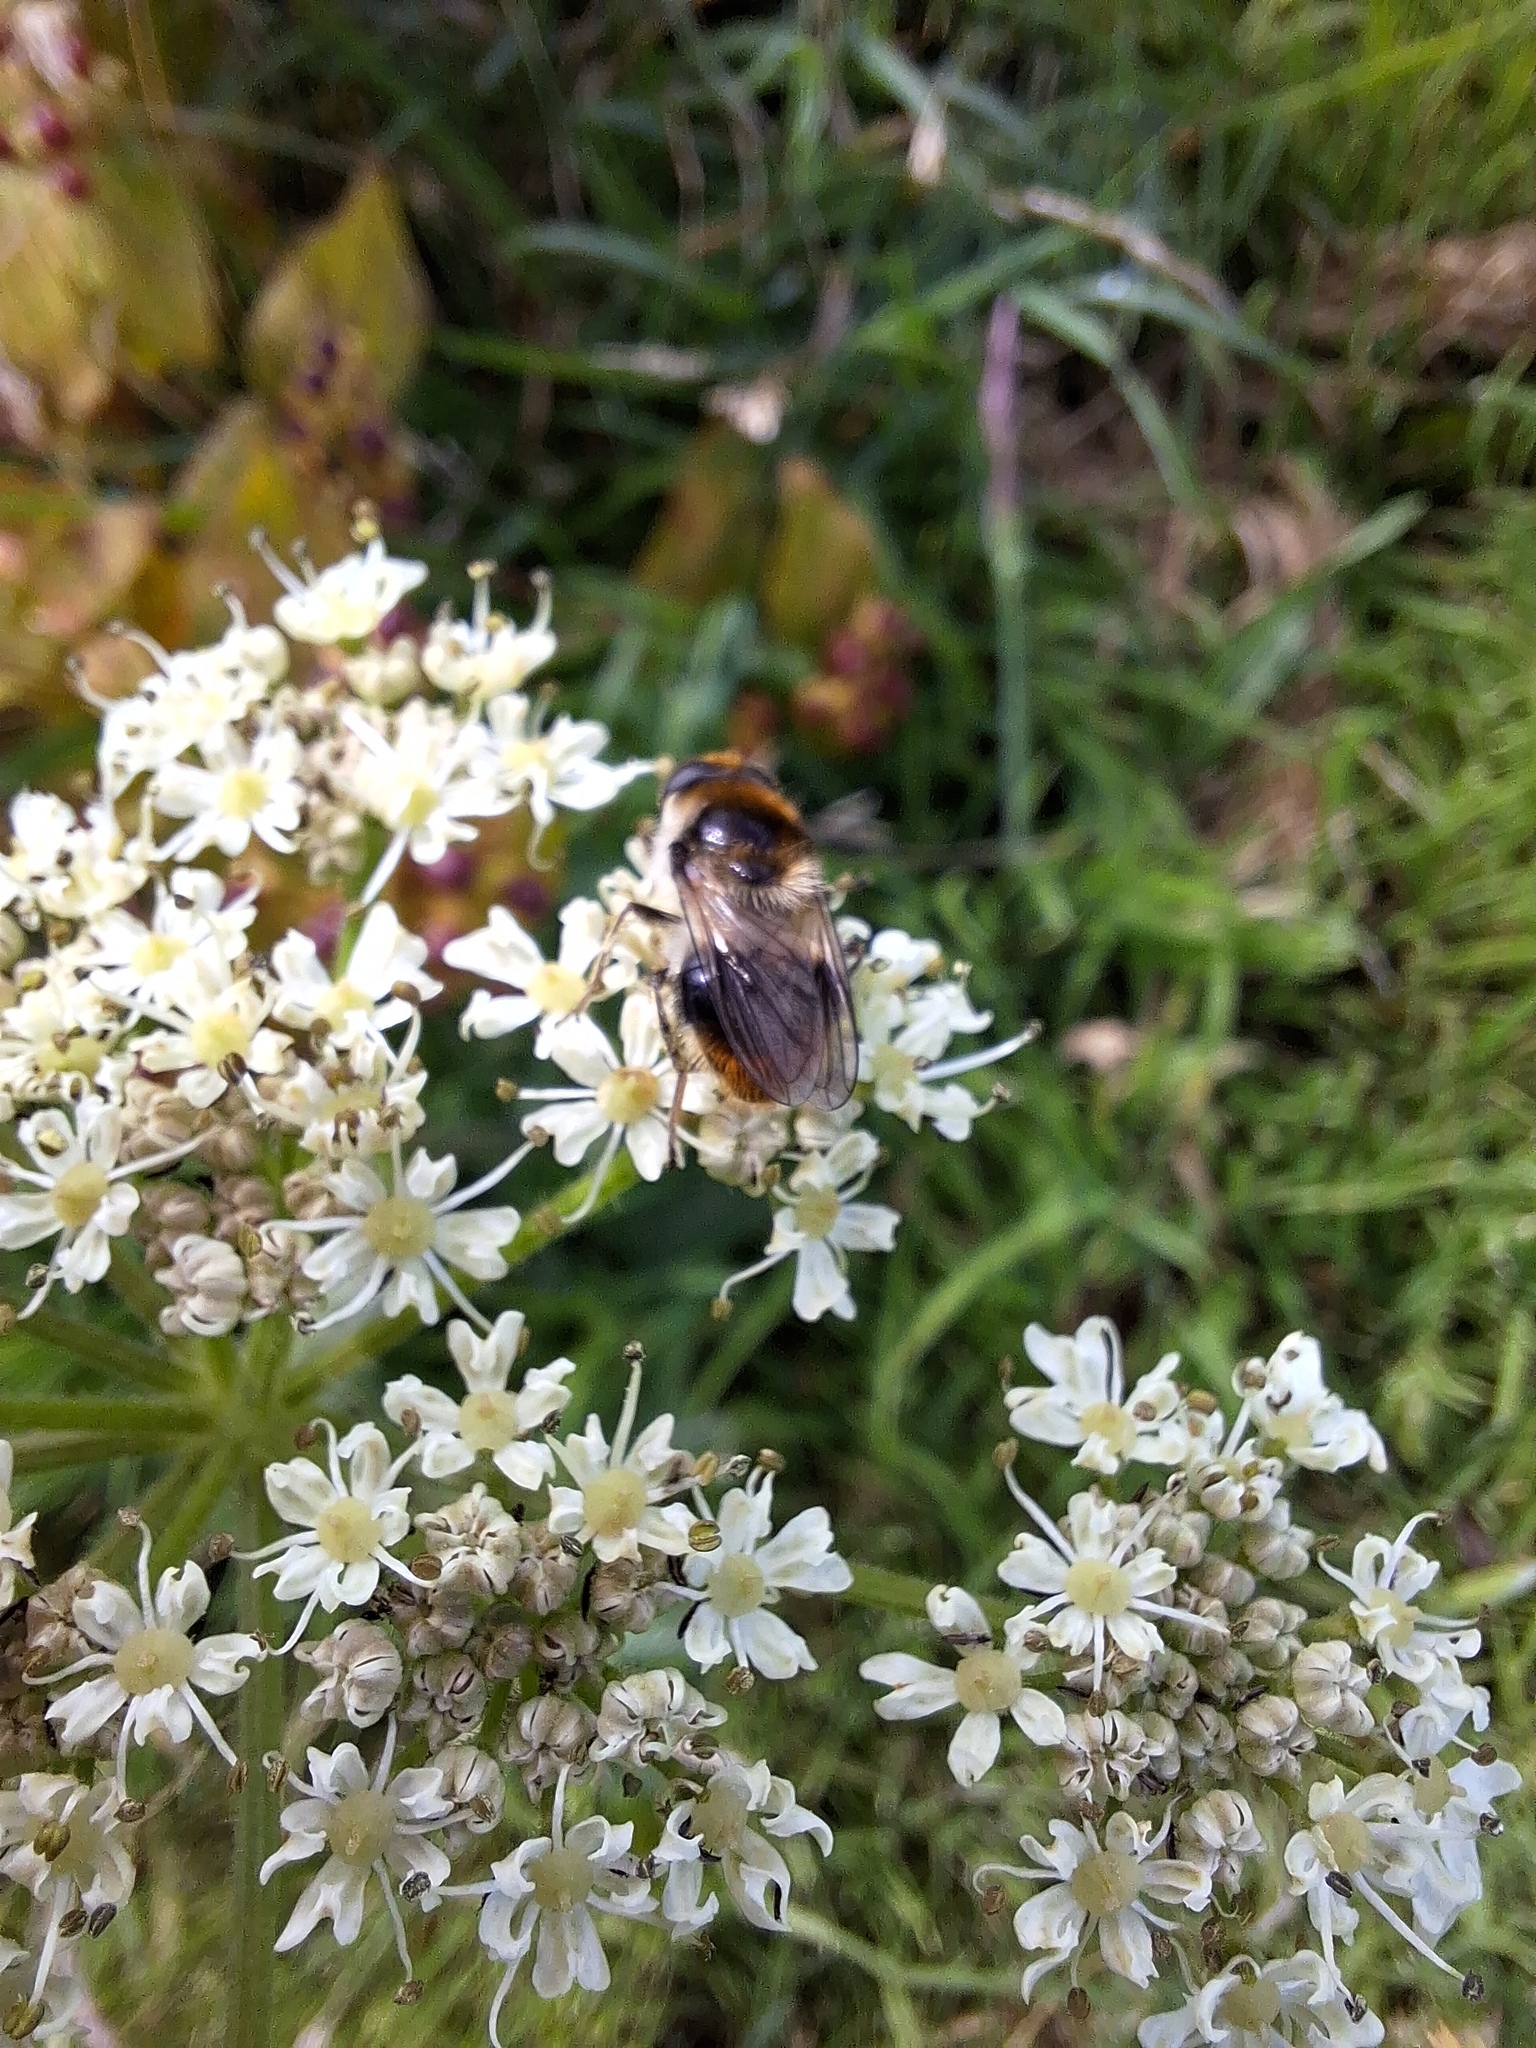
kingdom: Animalia
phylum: Arthropoda
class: Insecta
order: Diptera
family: Syrphidae
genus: Cheilosia
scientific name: Cheilosia illustrata
